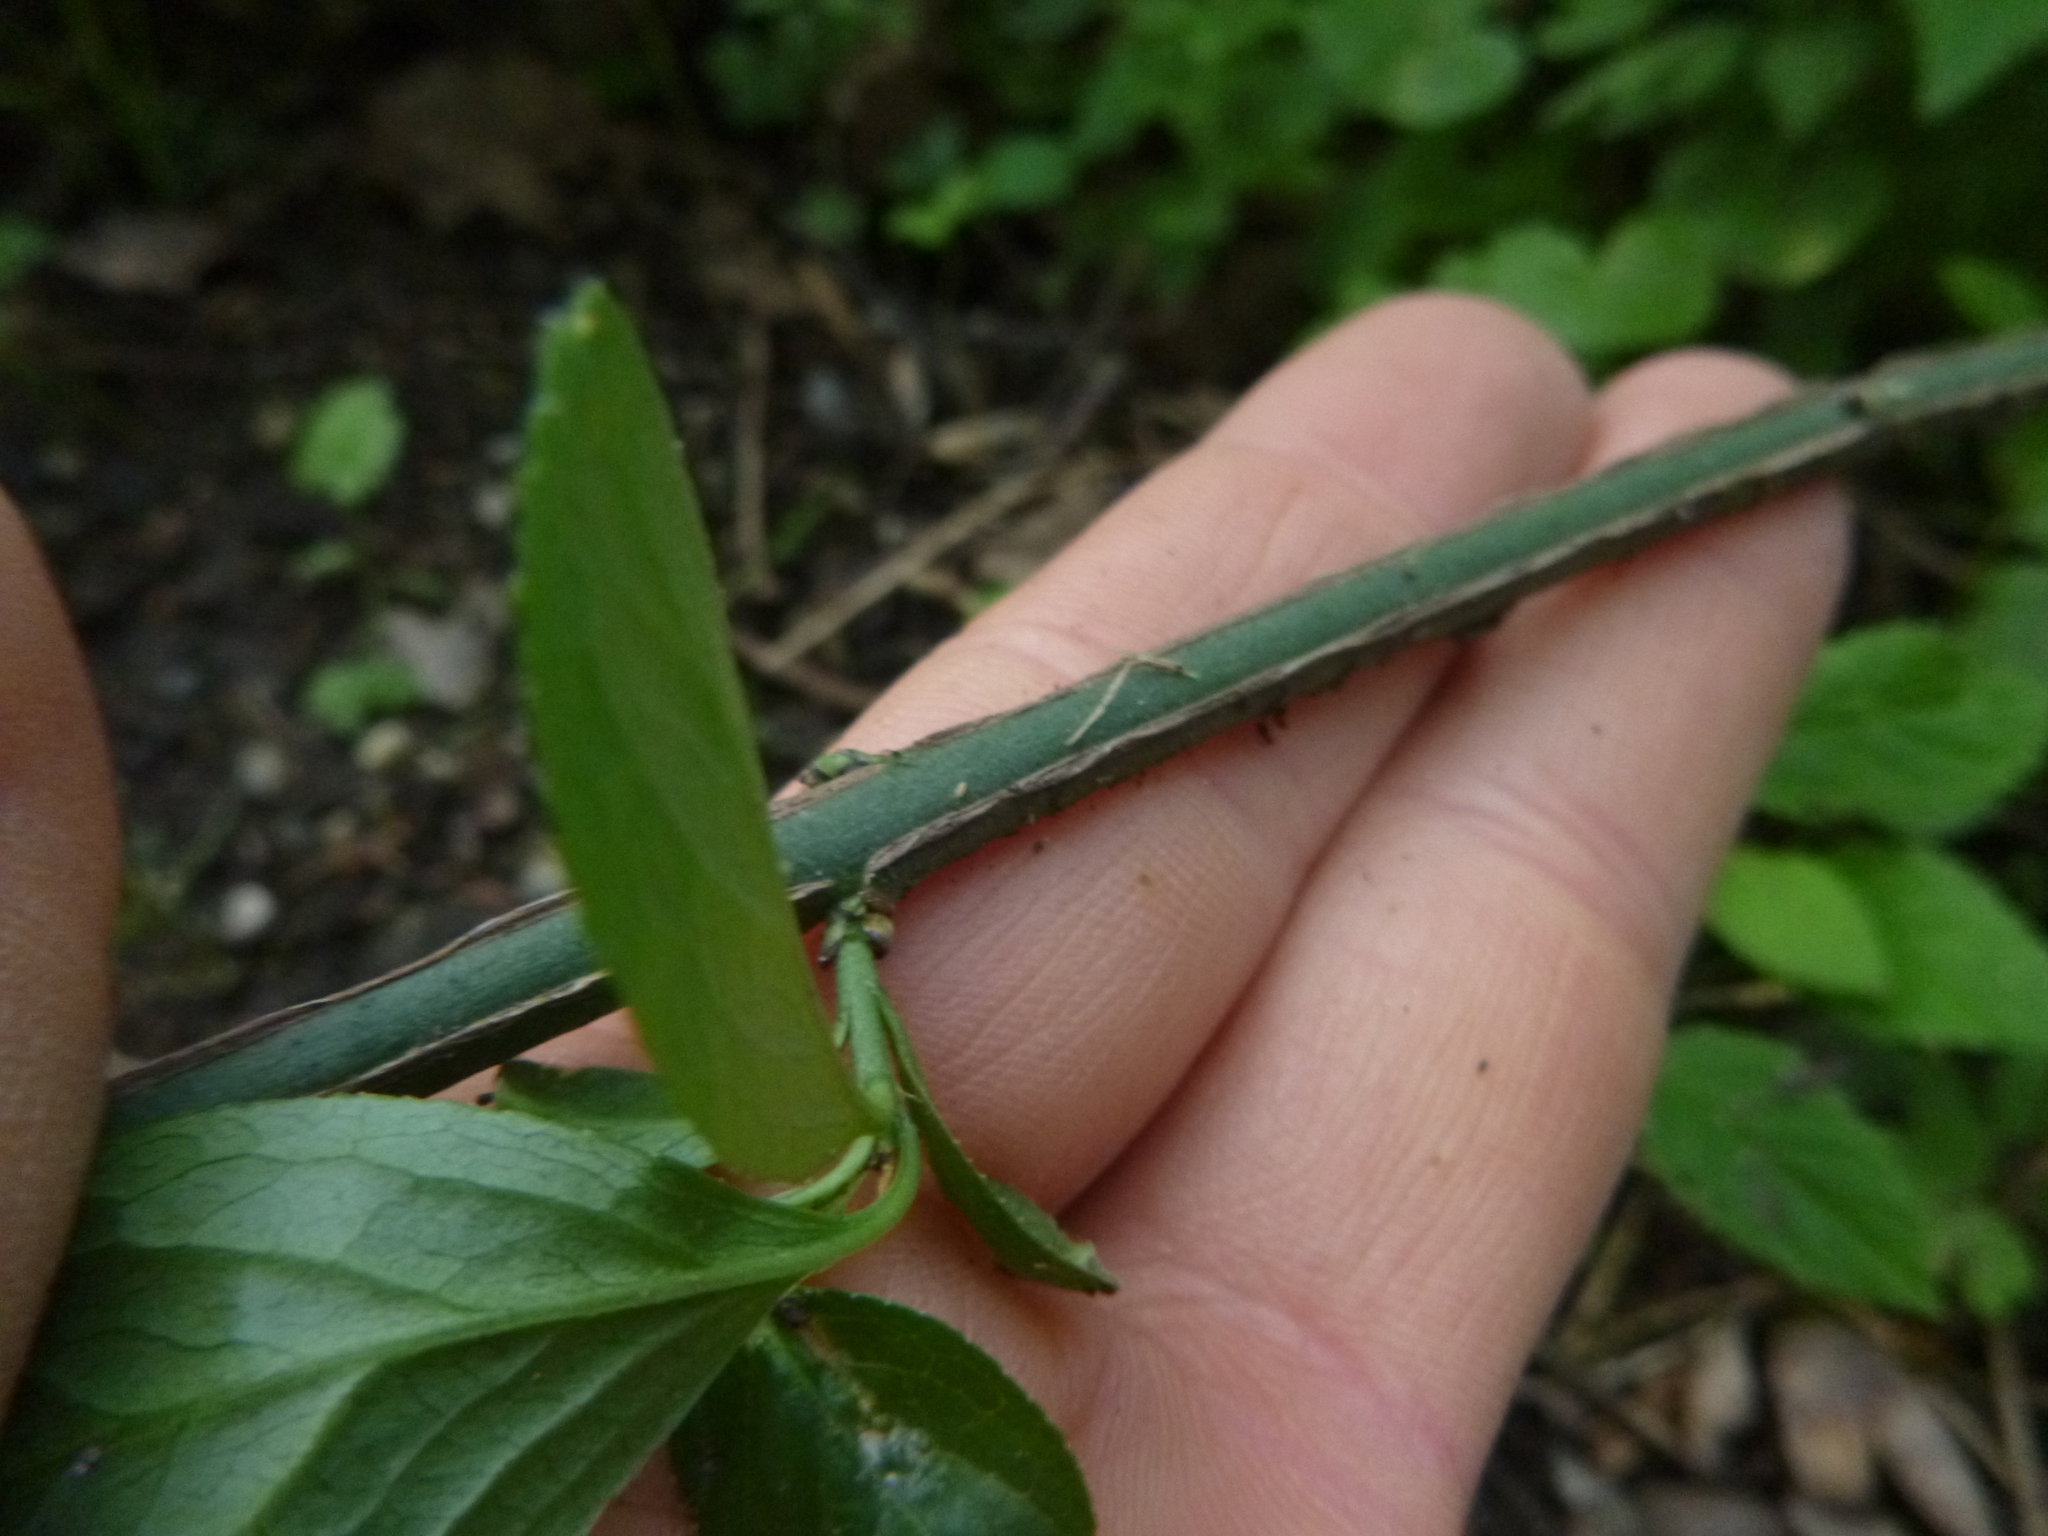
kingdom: Plantae
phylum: Tracheophyta
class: Magnoliopsida
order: Celastrales
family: Celastraceae
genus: Euonymus
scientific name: Euonymus europaeus
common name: Spindle
